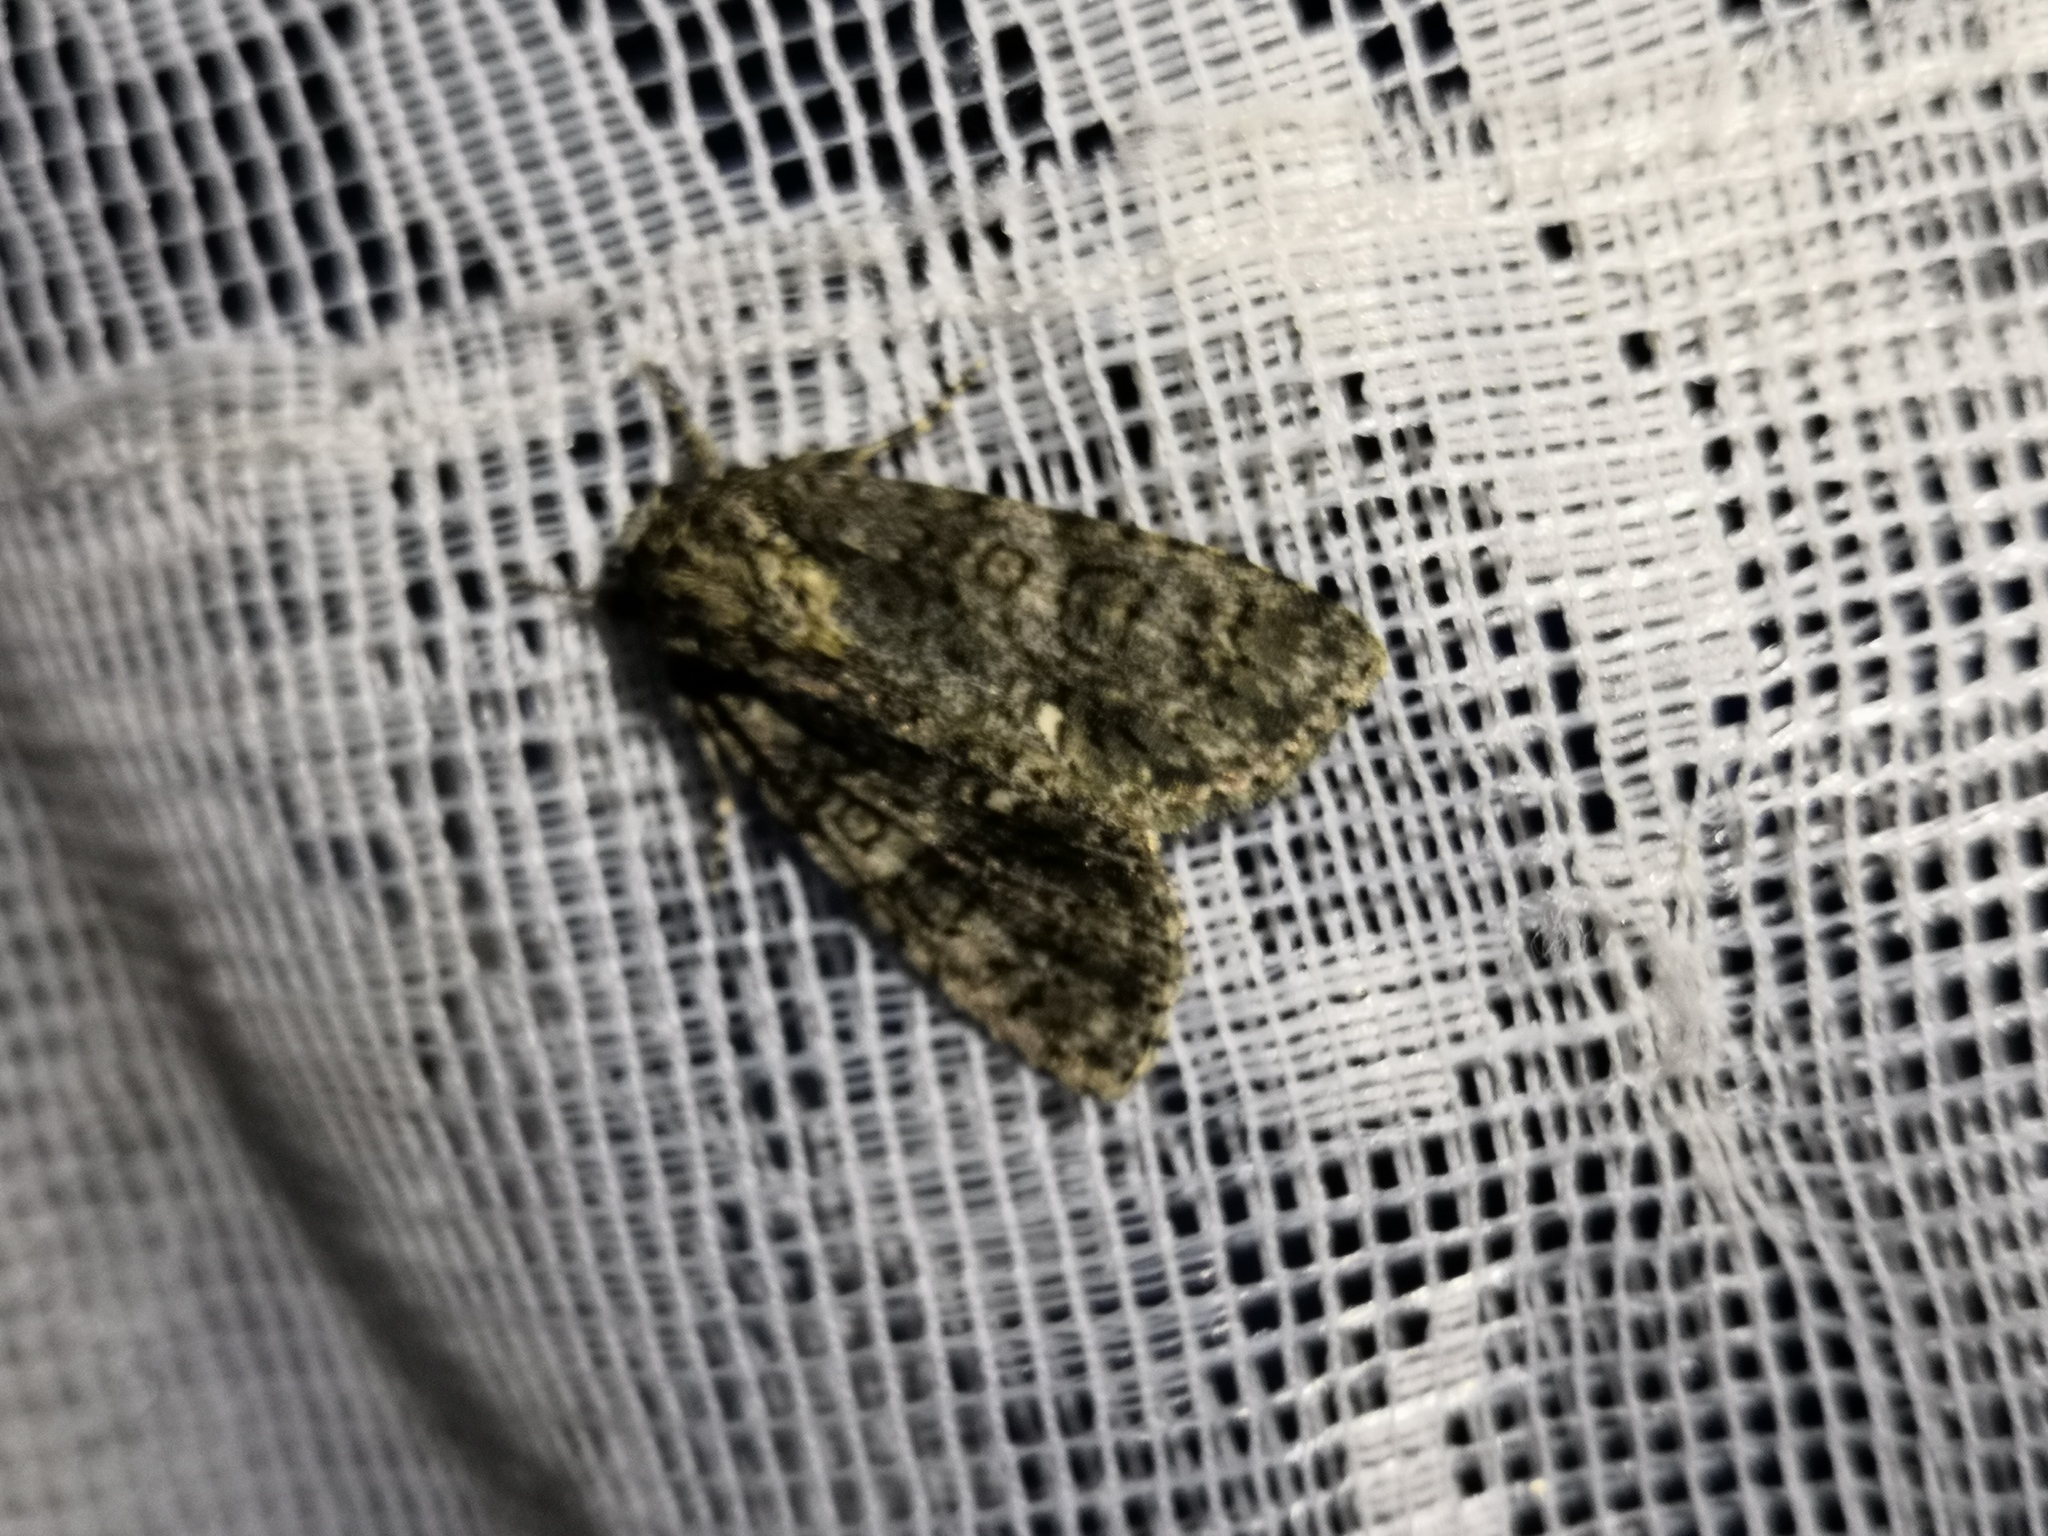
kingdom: Animalia
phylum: Arthropoda
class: Insecta
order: Lepidoptera
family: Noctuidae
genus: Acronicta
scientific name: Acronicta rumicis
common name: Knot grass
